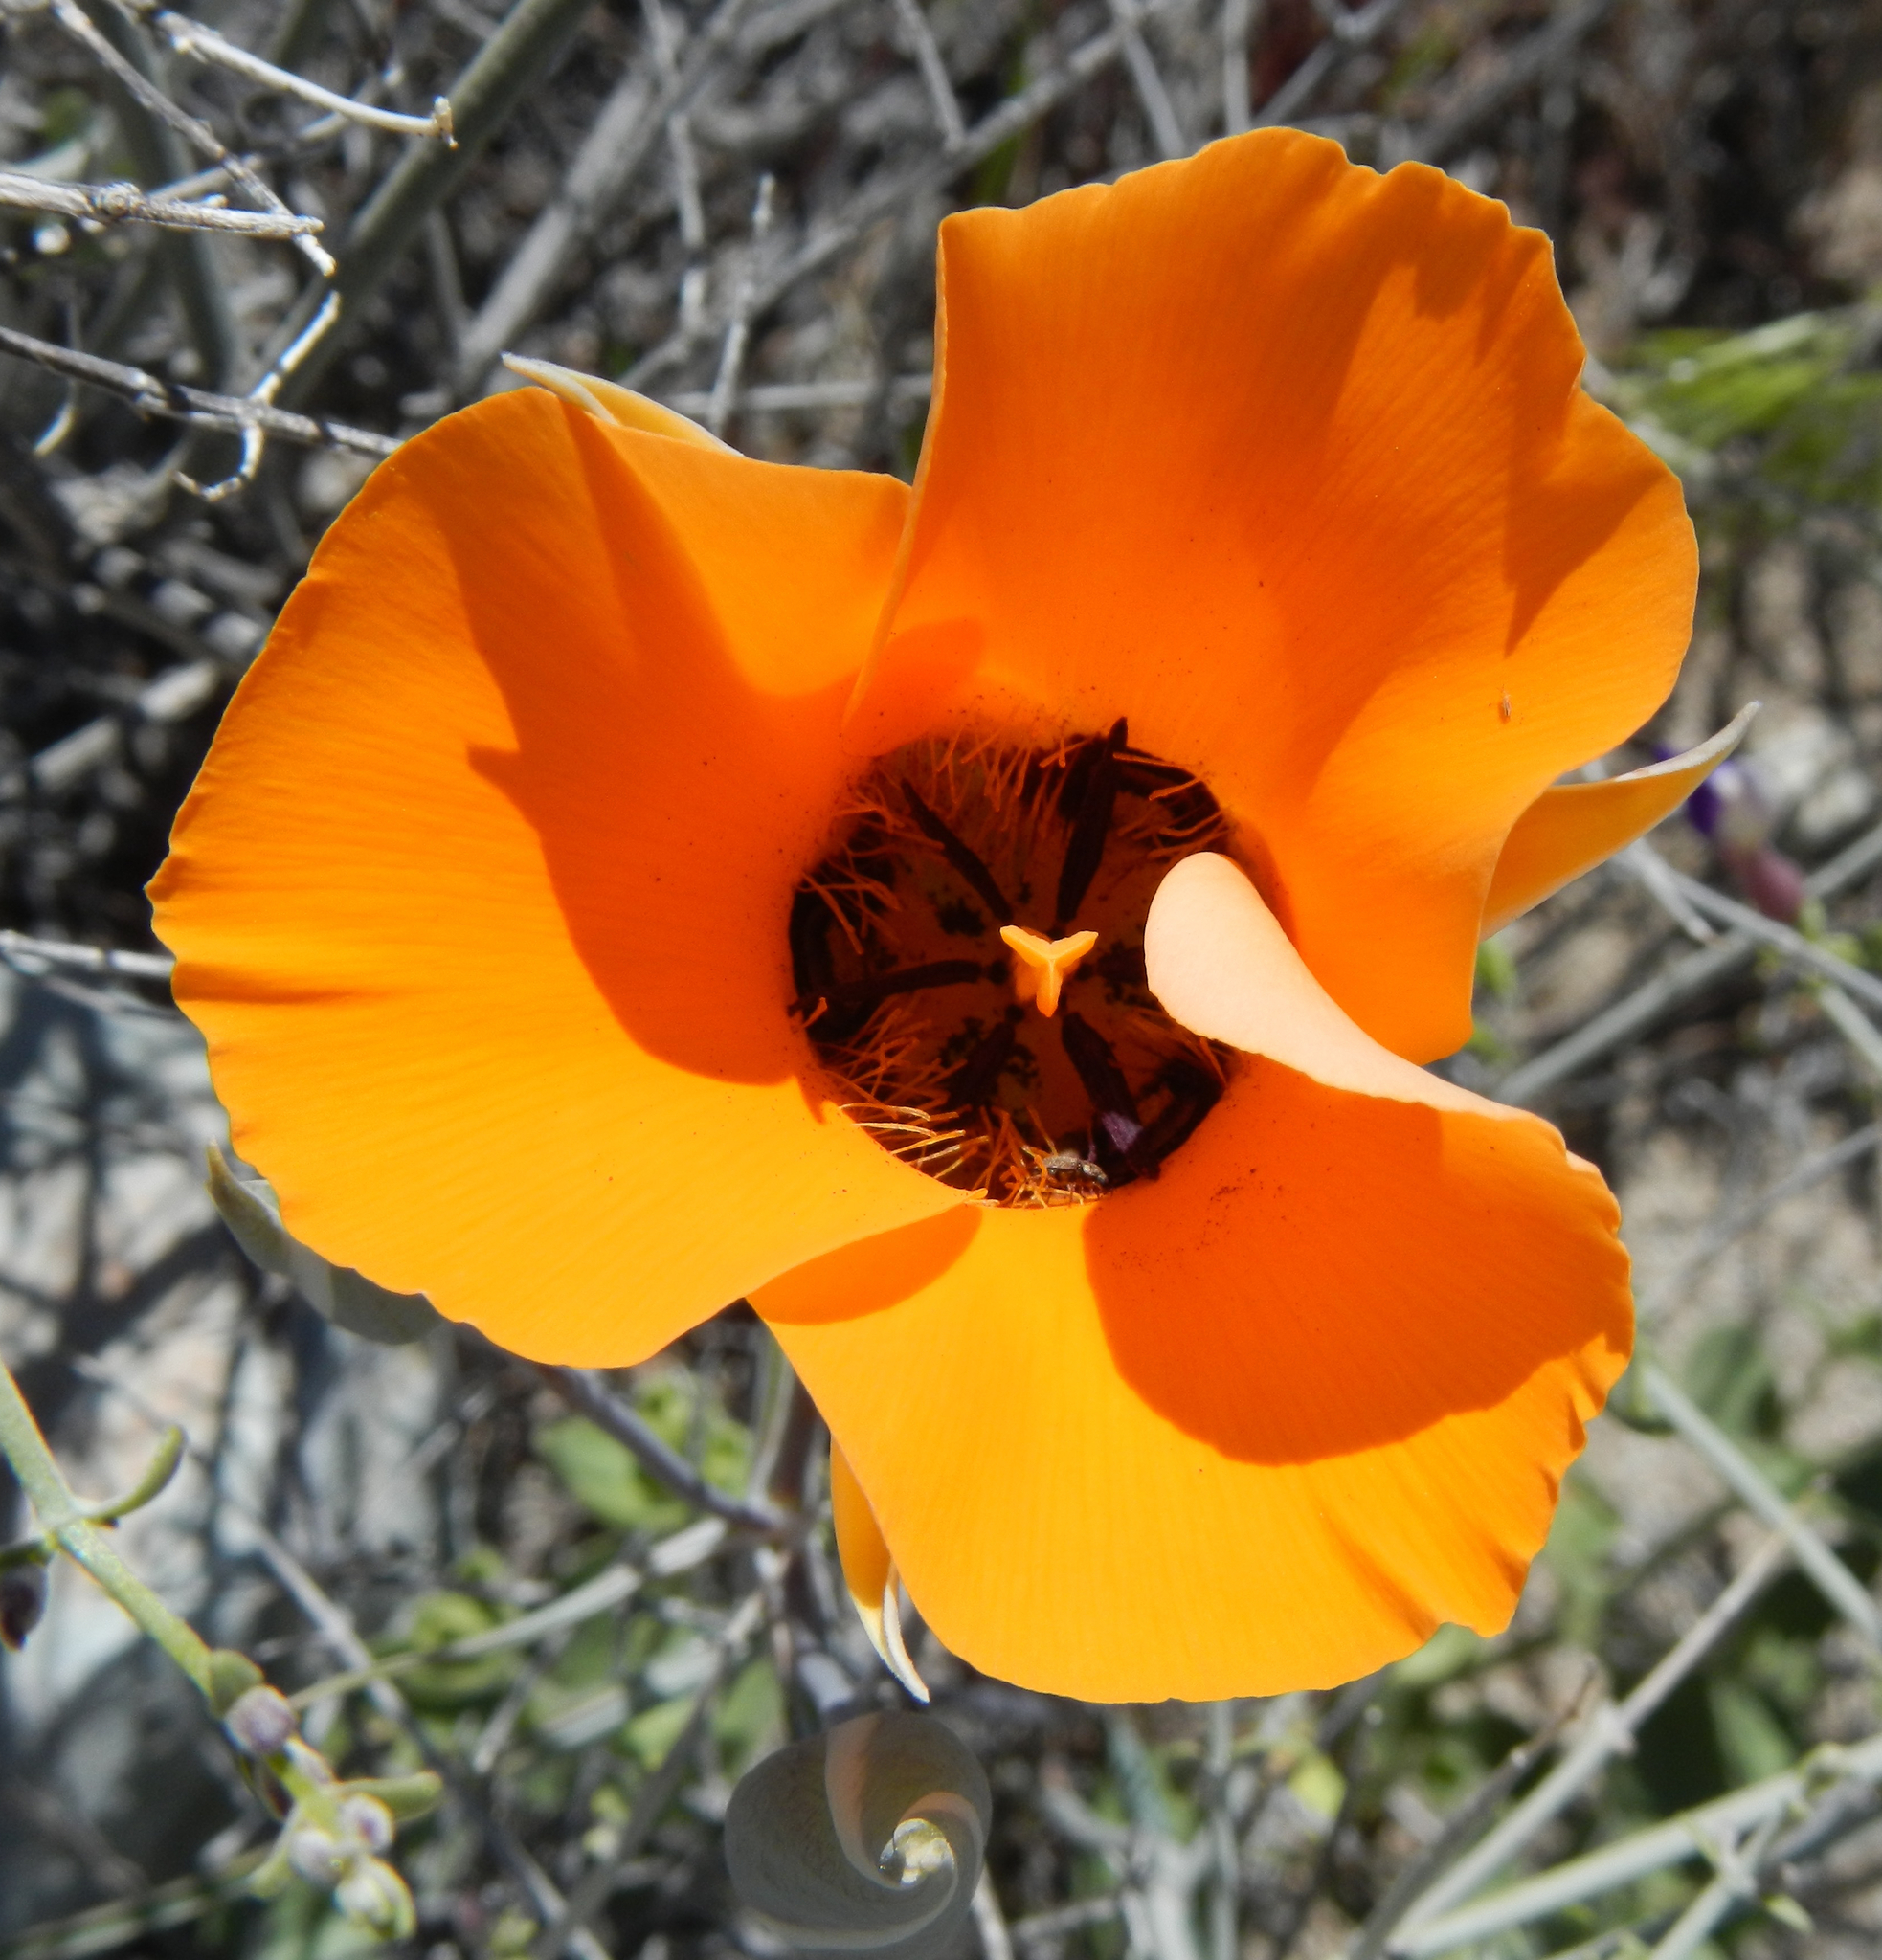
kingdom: Plantae
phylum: Tracheophyta
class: Liliopsida
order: Liliales
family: Liliaceae
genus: Calochortus
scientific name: Calochortus kennedyi
